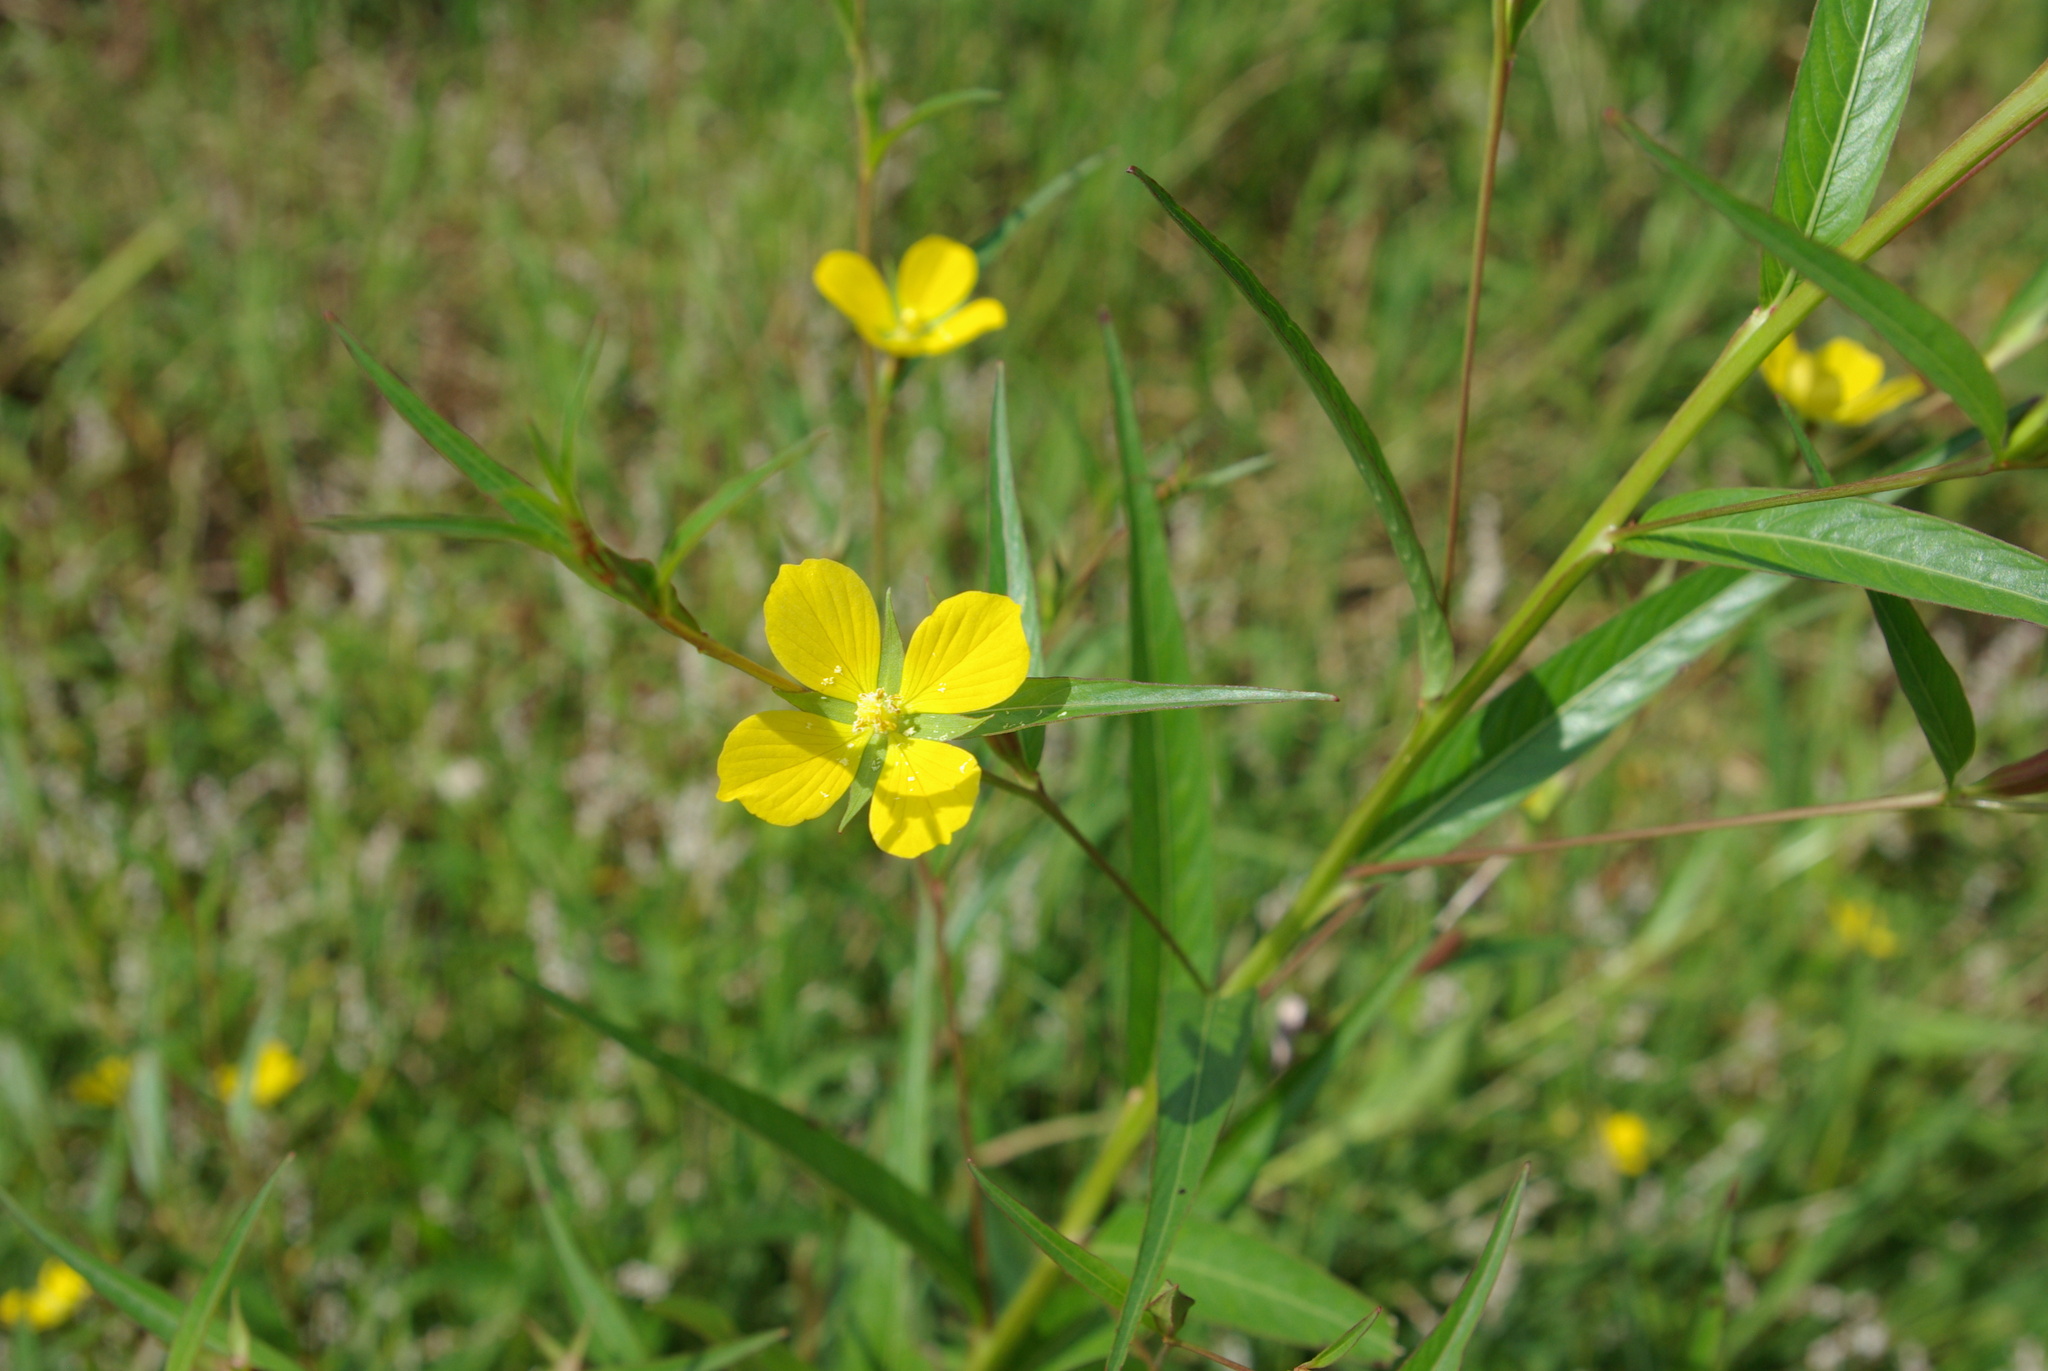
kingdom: Plantae
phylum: Tracheophyta
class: Magnoliopsida
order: Myrtales
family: Onagraceae
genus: Ludwigia
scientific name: Ludwigia decurrens
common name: Winged water-primrose
